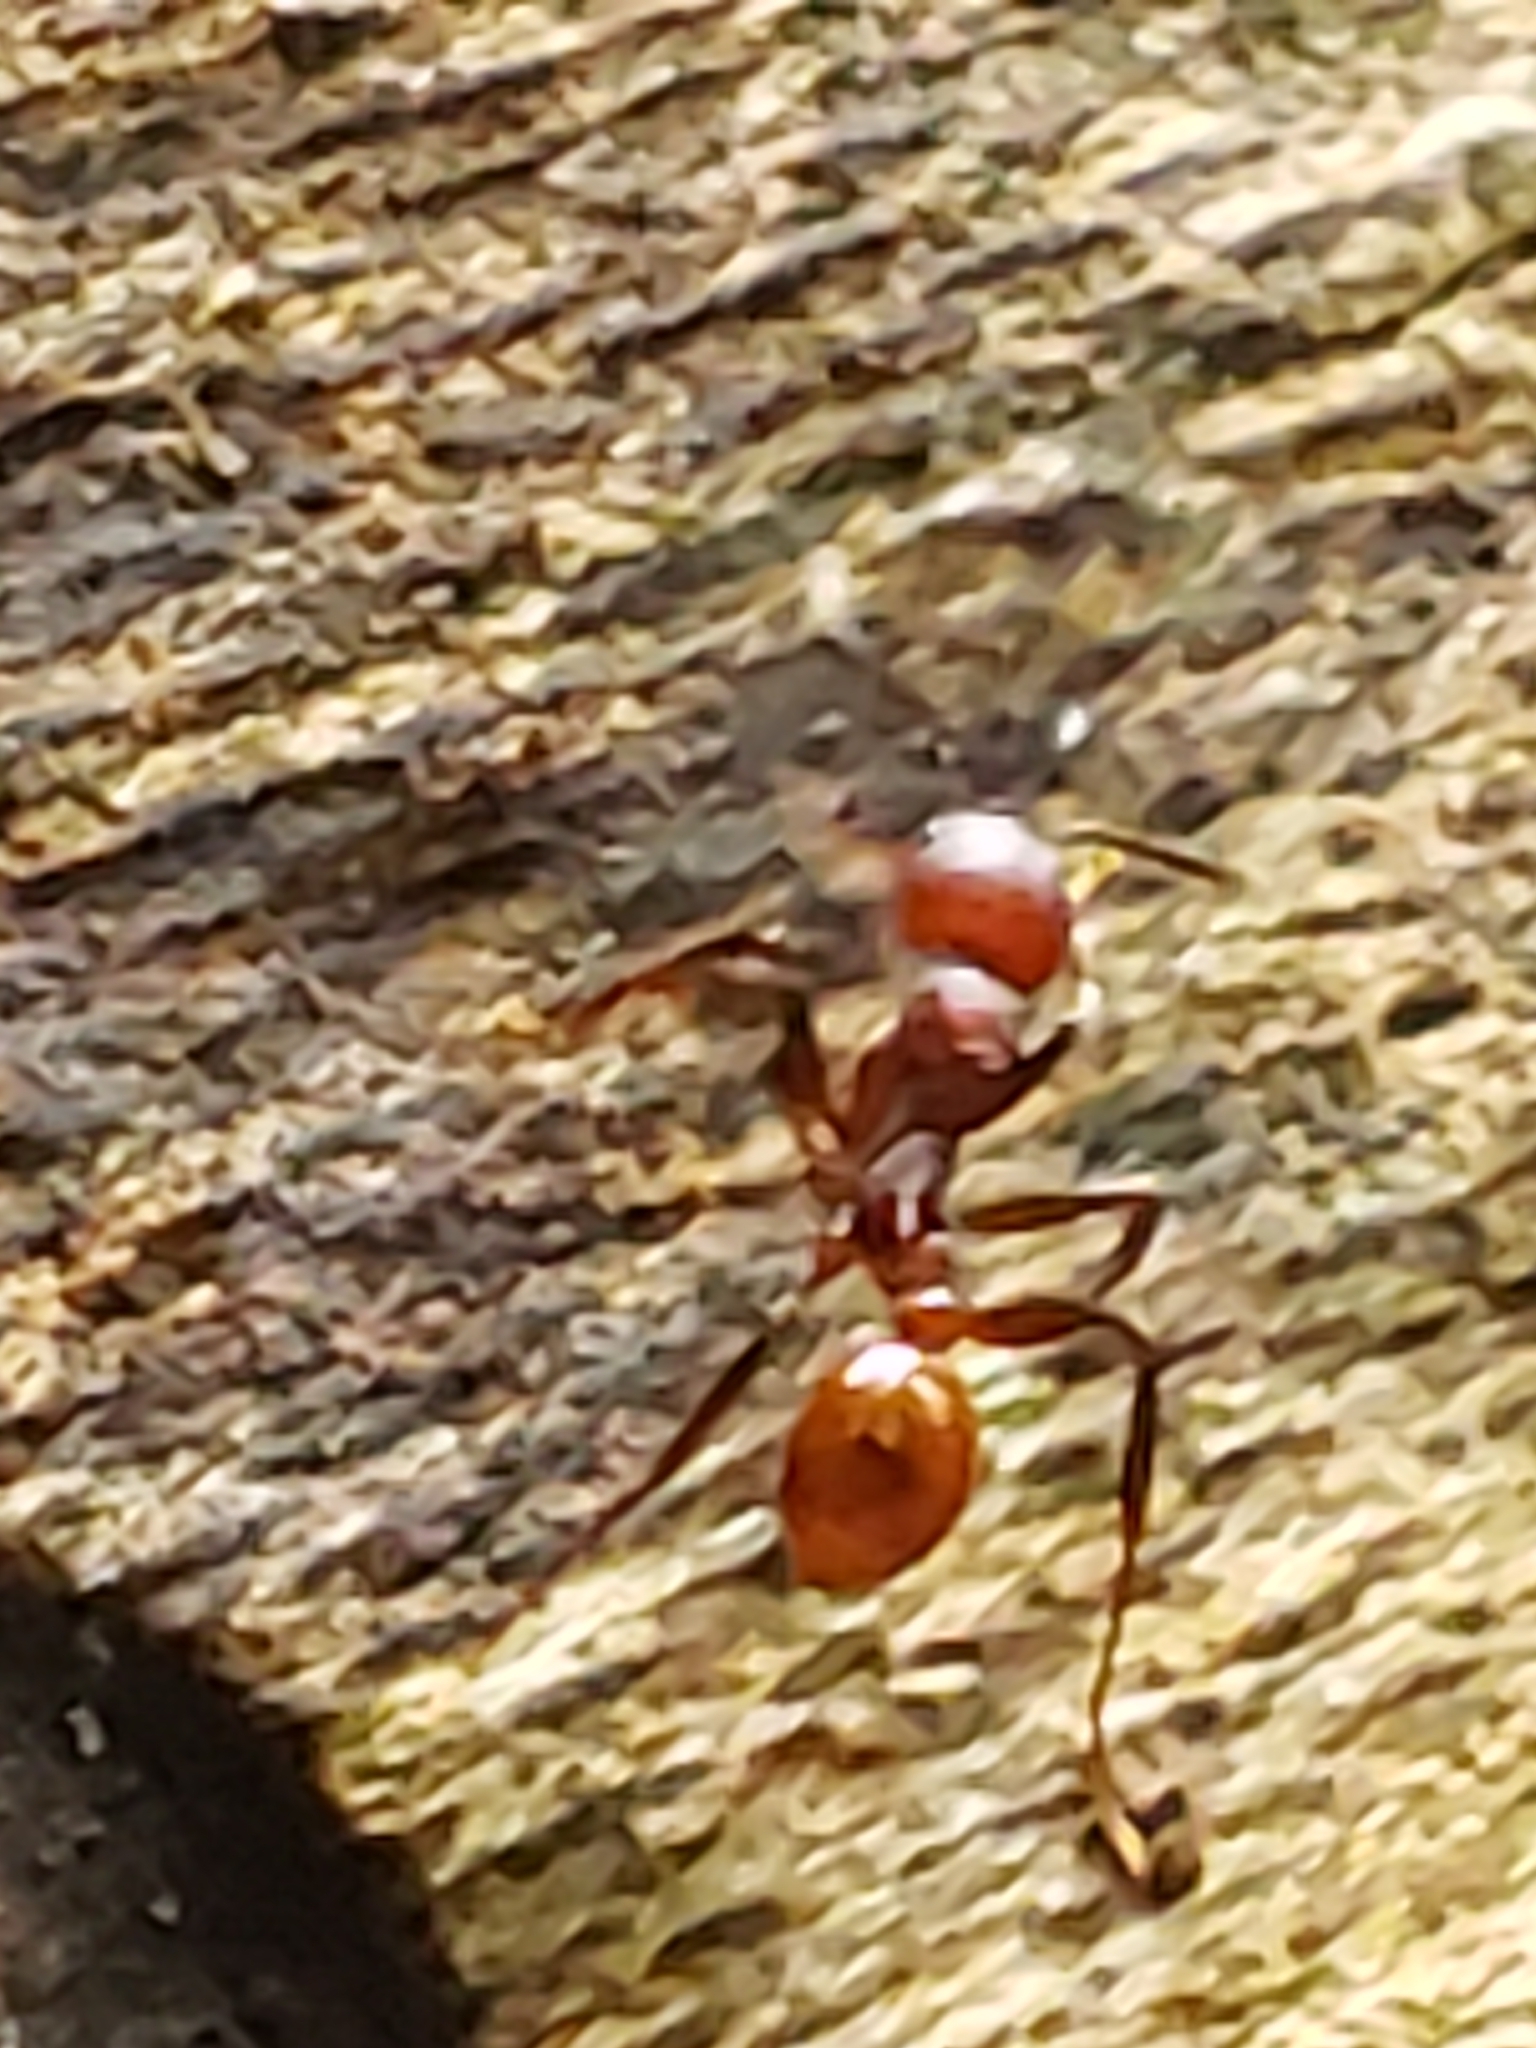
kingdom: Animalia
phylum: Arthropoda
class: Insecta
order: Hymenoptera
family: Formicidae
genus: Aphaenogaster
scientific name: Aphaenogaster tennesseensis
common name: Tennessee thread-waisted ant
